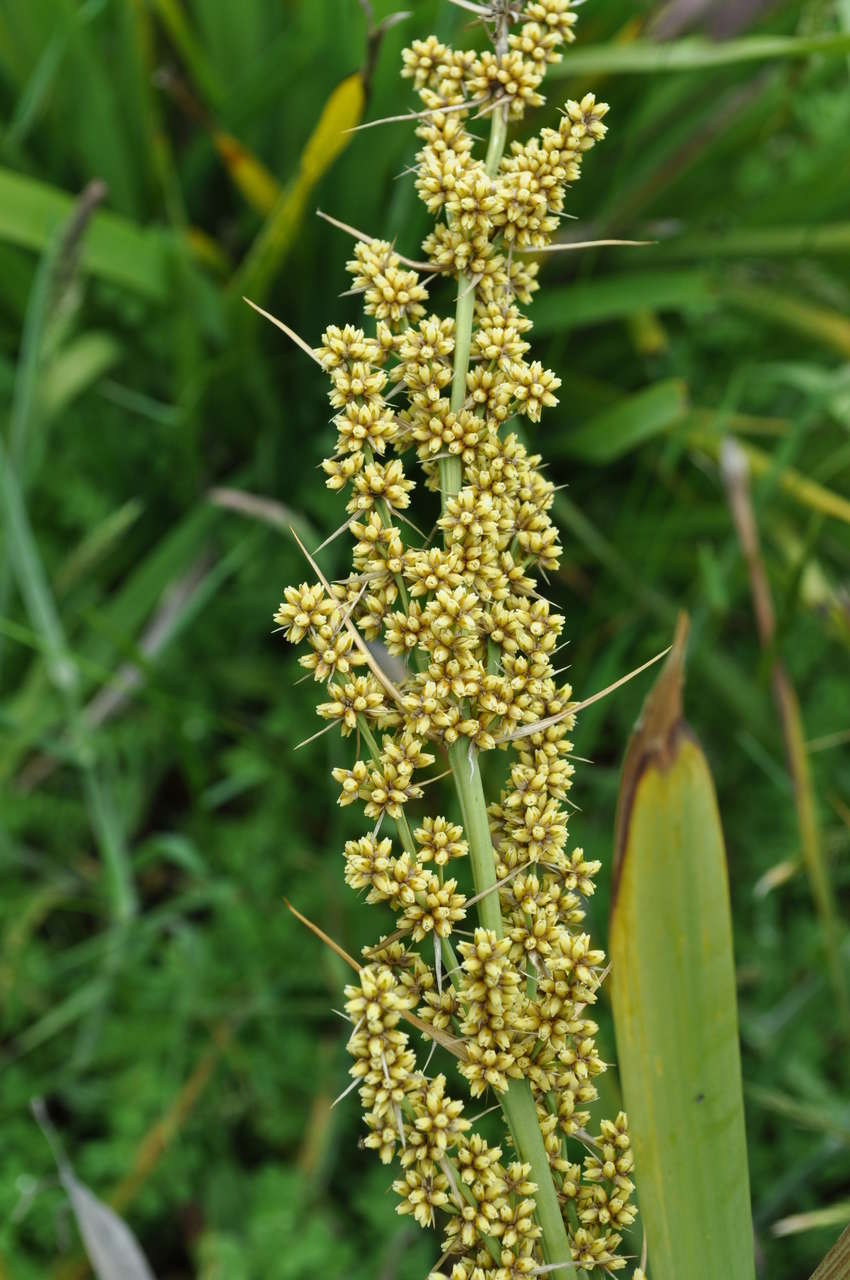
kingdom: Plantae
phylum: Tracheophyta
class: Liliopsida
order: Asparagales
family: Asparagaceae
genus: Lomandra
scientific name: Lomandra longifolia
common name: Longleaf mat-rush
